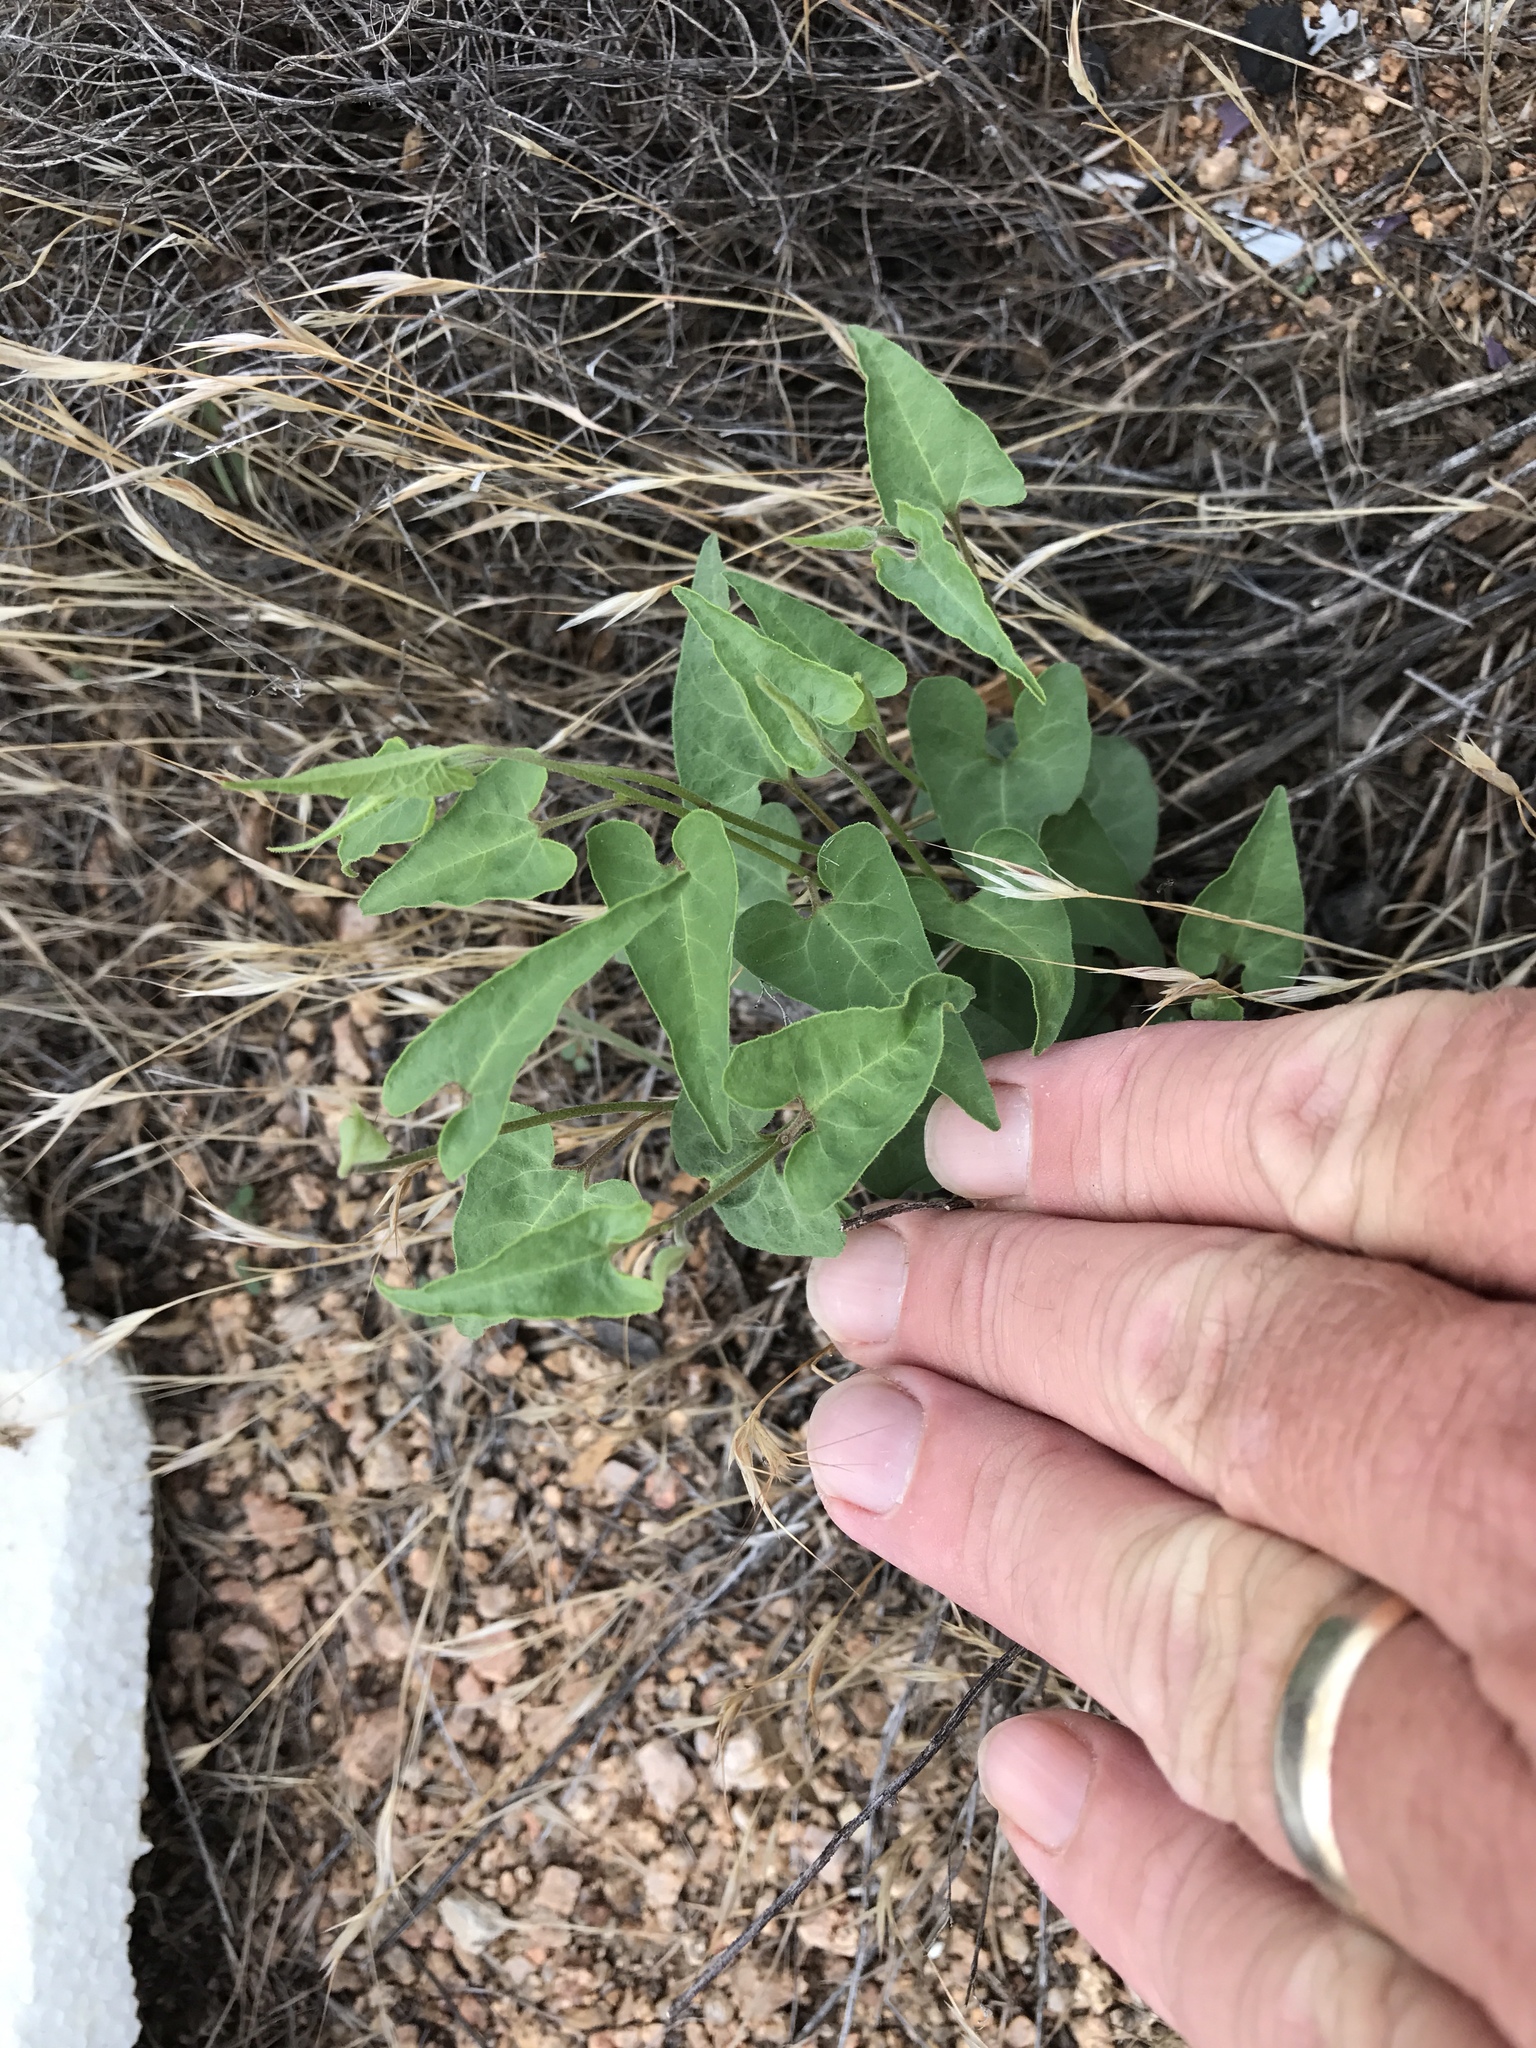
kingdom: Plantae
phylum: Tracheophyta
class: Magnoliopsida
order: Gentianales
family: Apocynaceae
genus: Chthamalia
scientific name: Chthamalia producta
